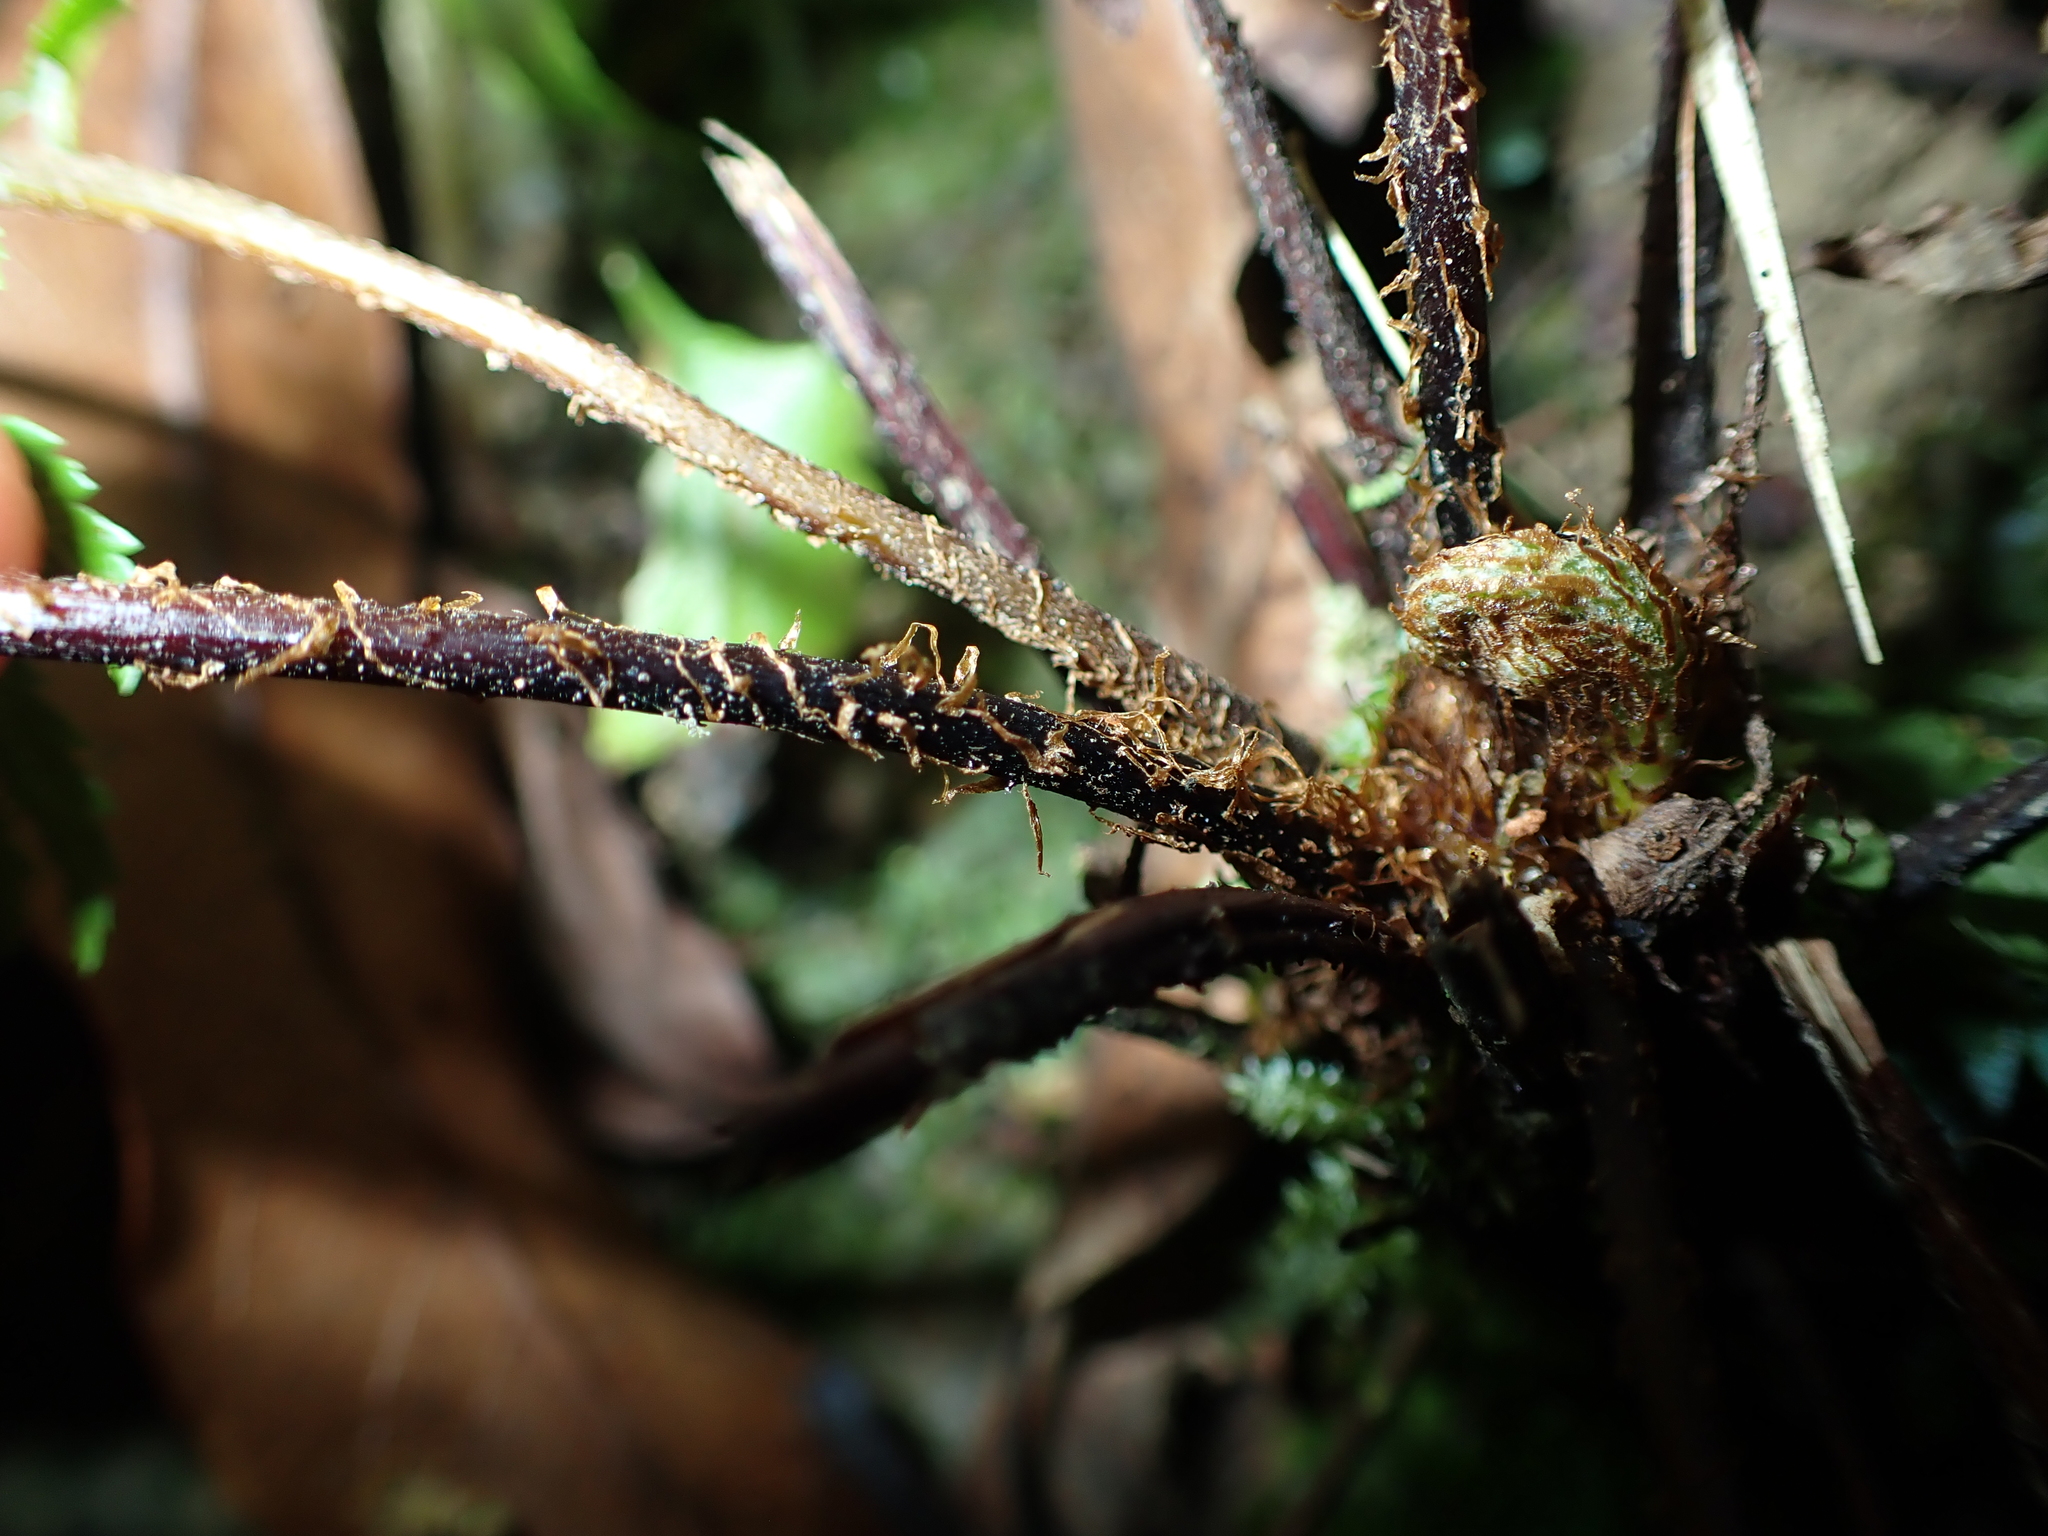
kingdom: Plantae
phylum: Tracheophyta
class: Polypodiopsida
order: Cyatheales
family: Cyatheaceae
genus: Alsophila
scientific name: Alsophila spinulosa
